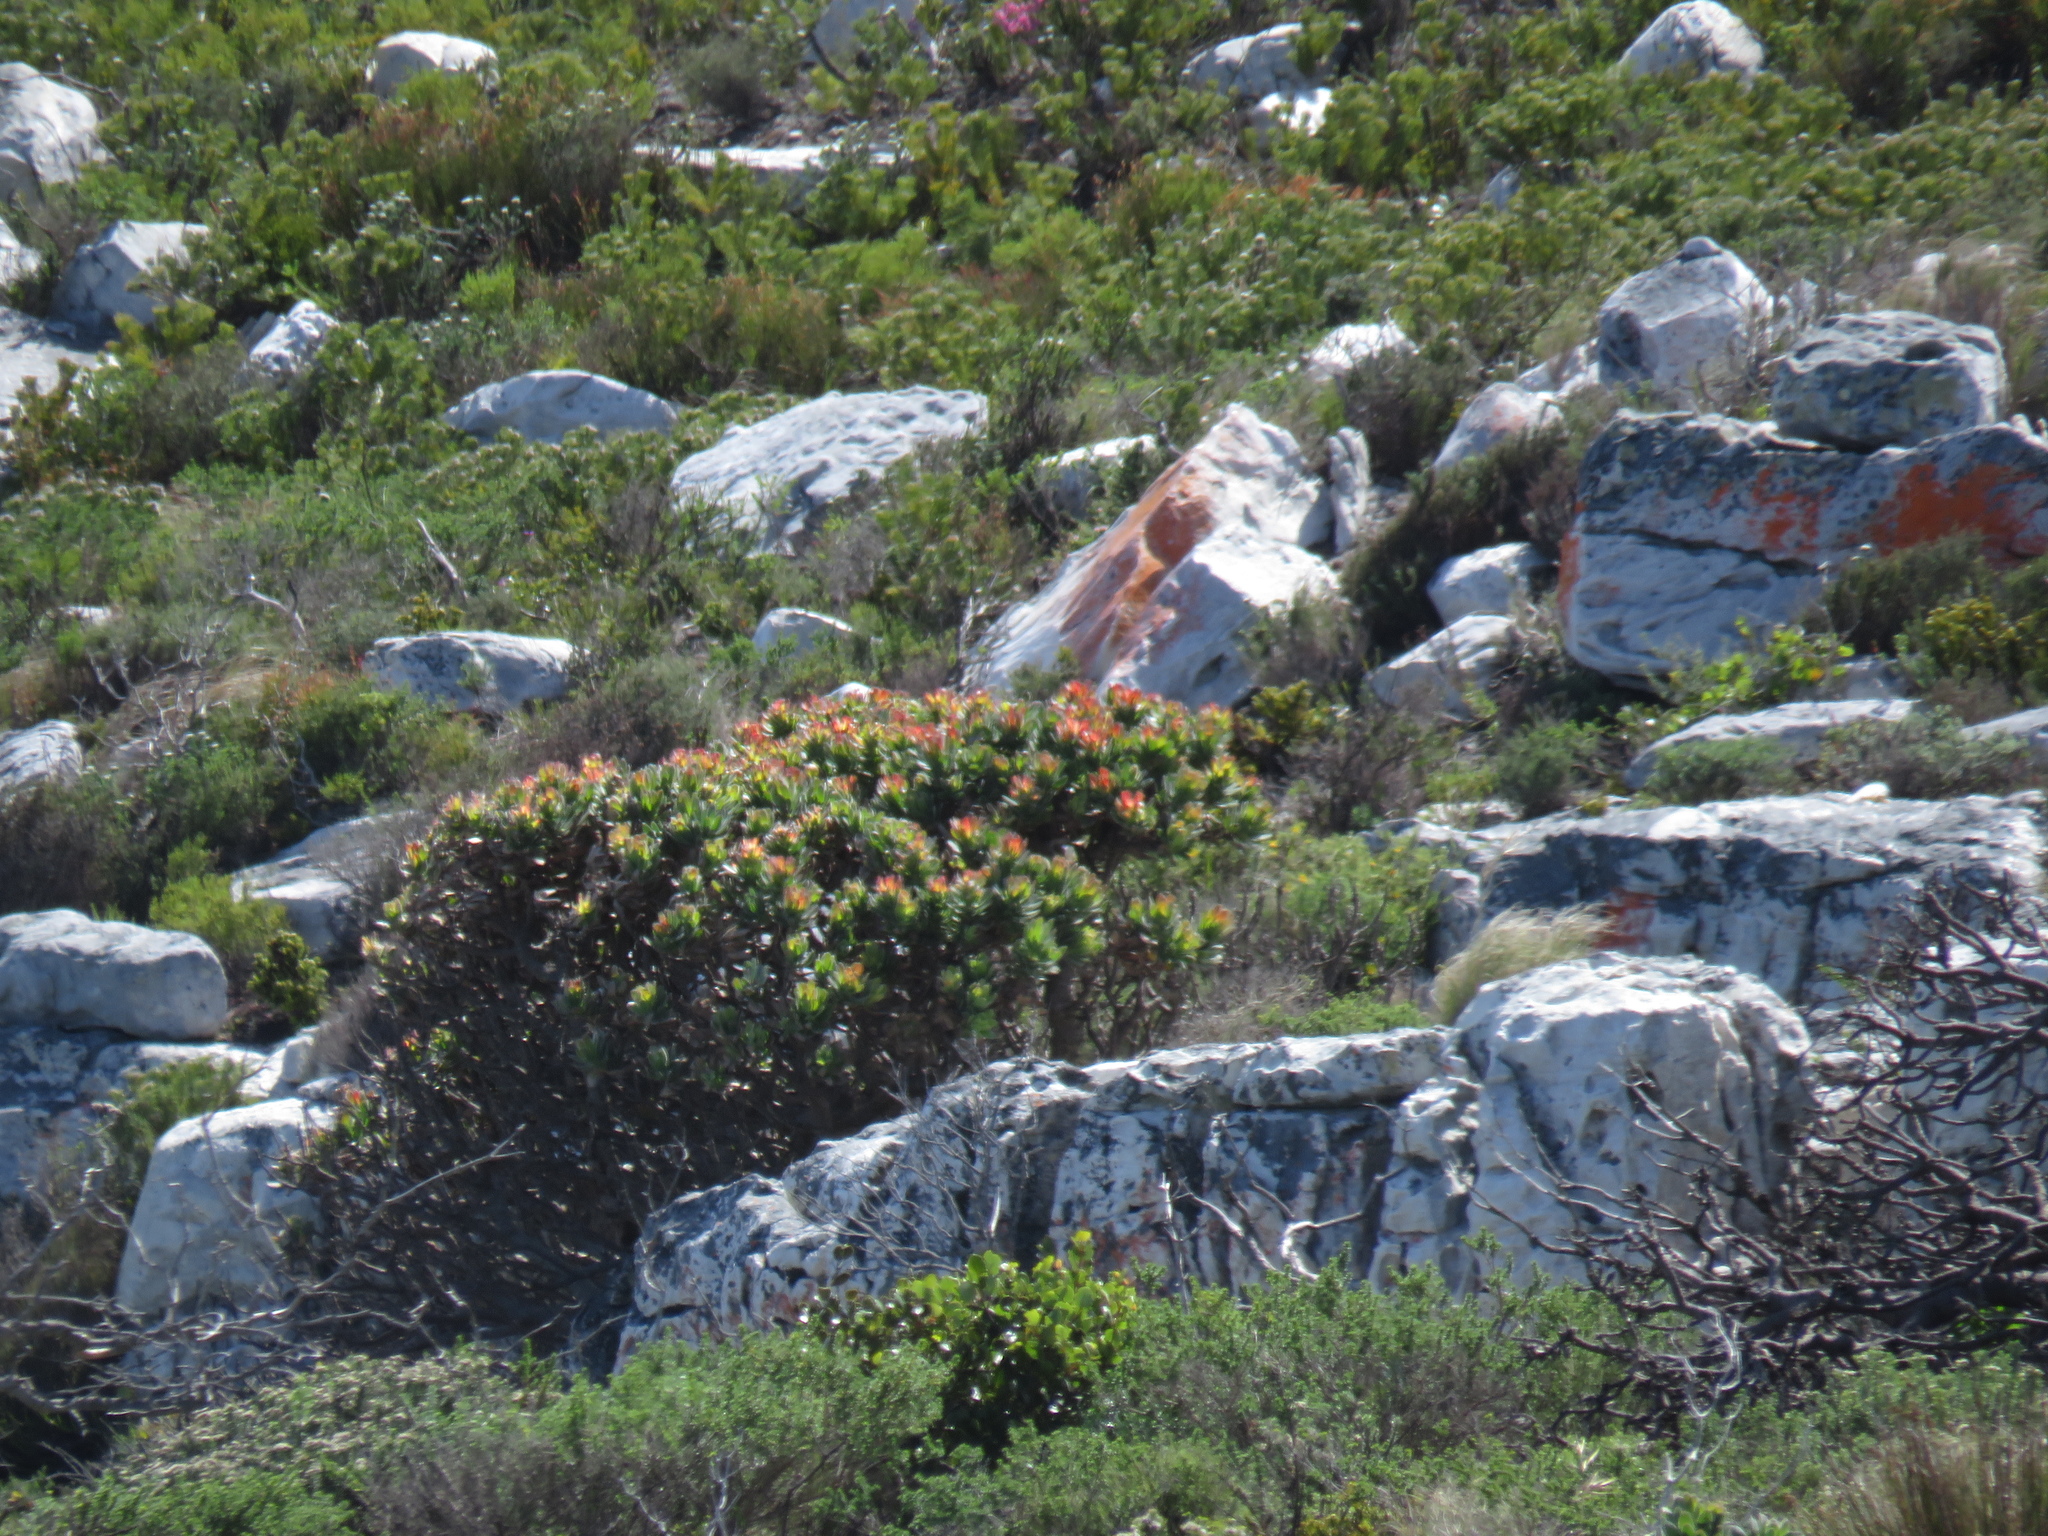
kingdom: Plantae
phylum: Tracheophyta
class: Magnoliopsida
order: Proteales
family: Proteaceae
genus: Mimetes
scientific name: Mimetes fimbriifolius
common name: Fringed bottlebrush
